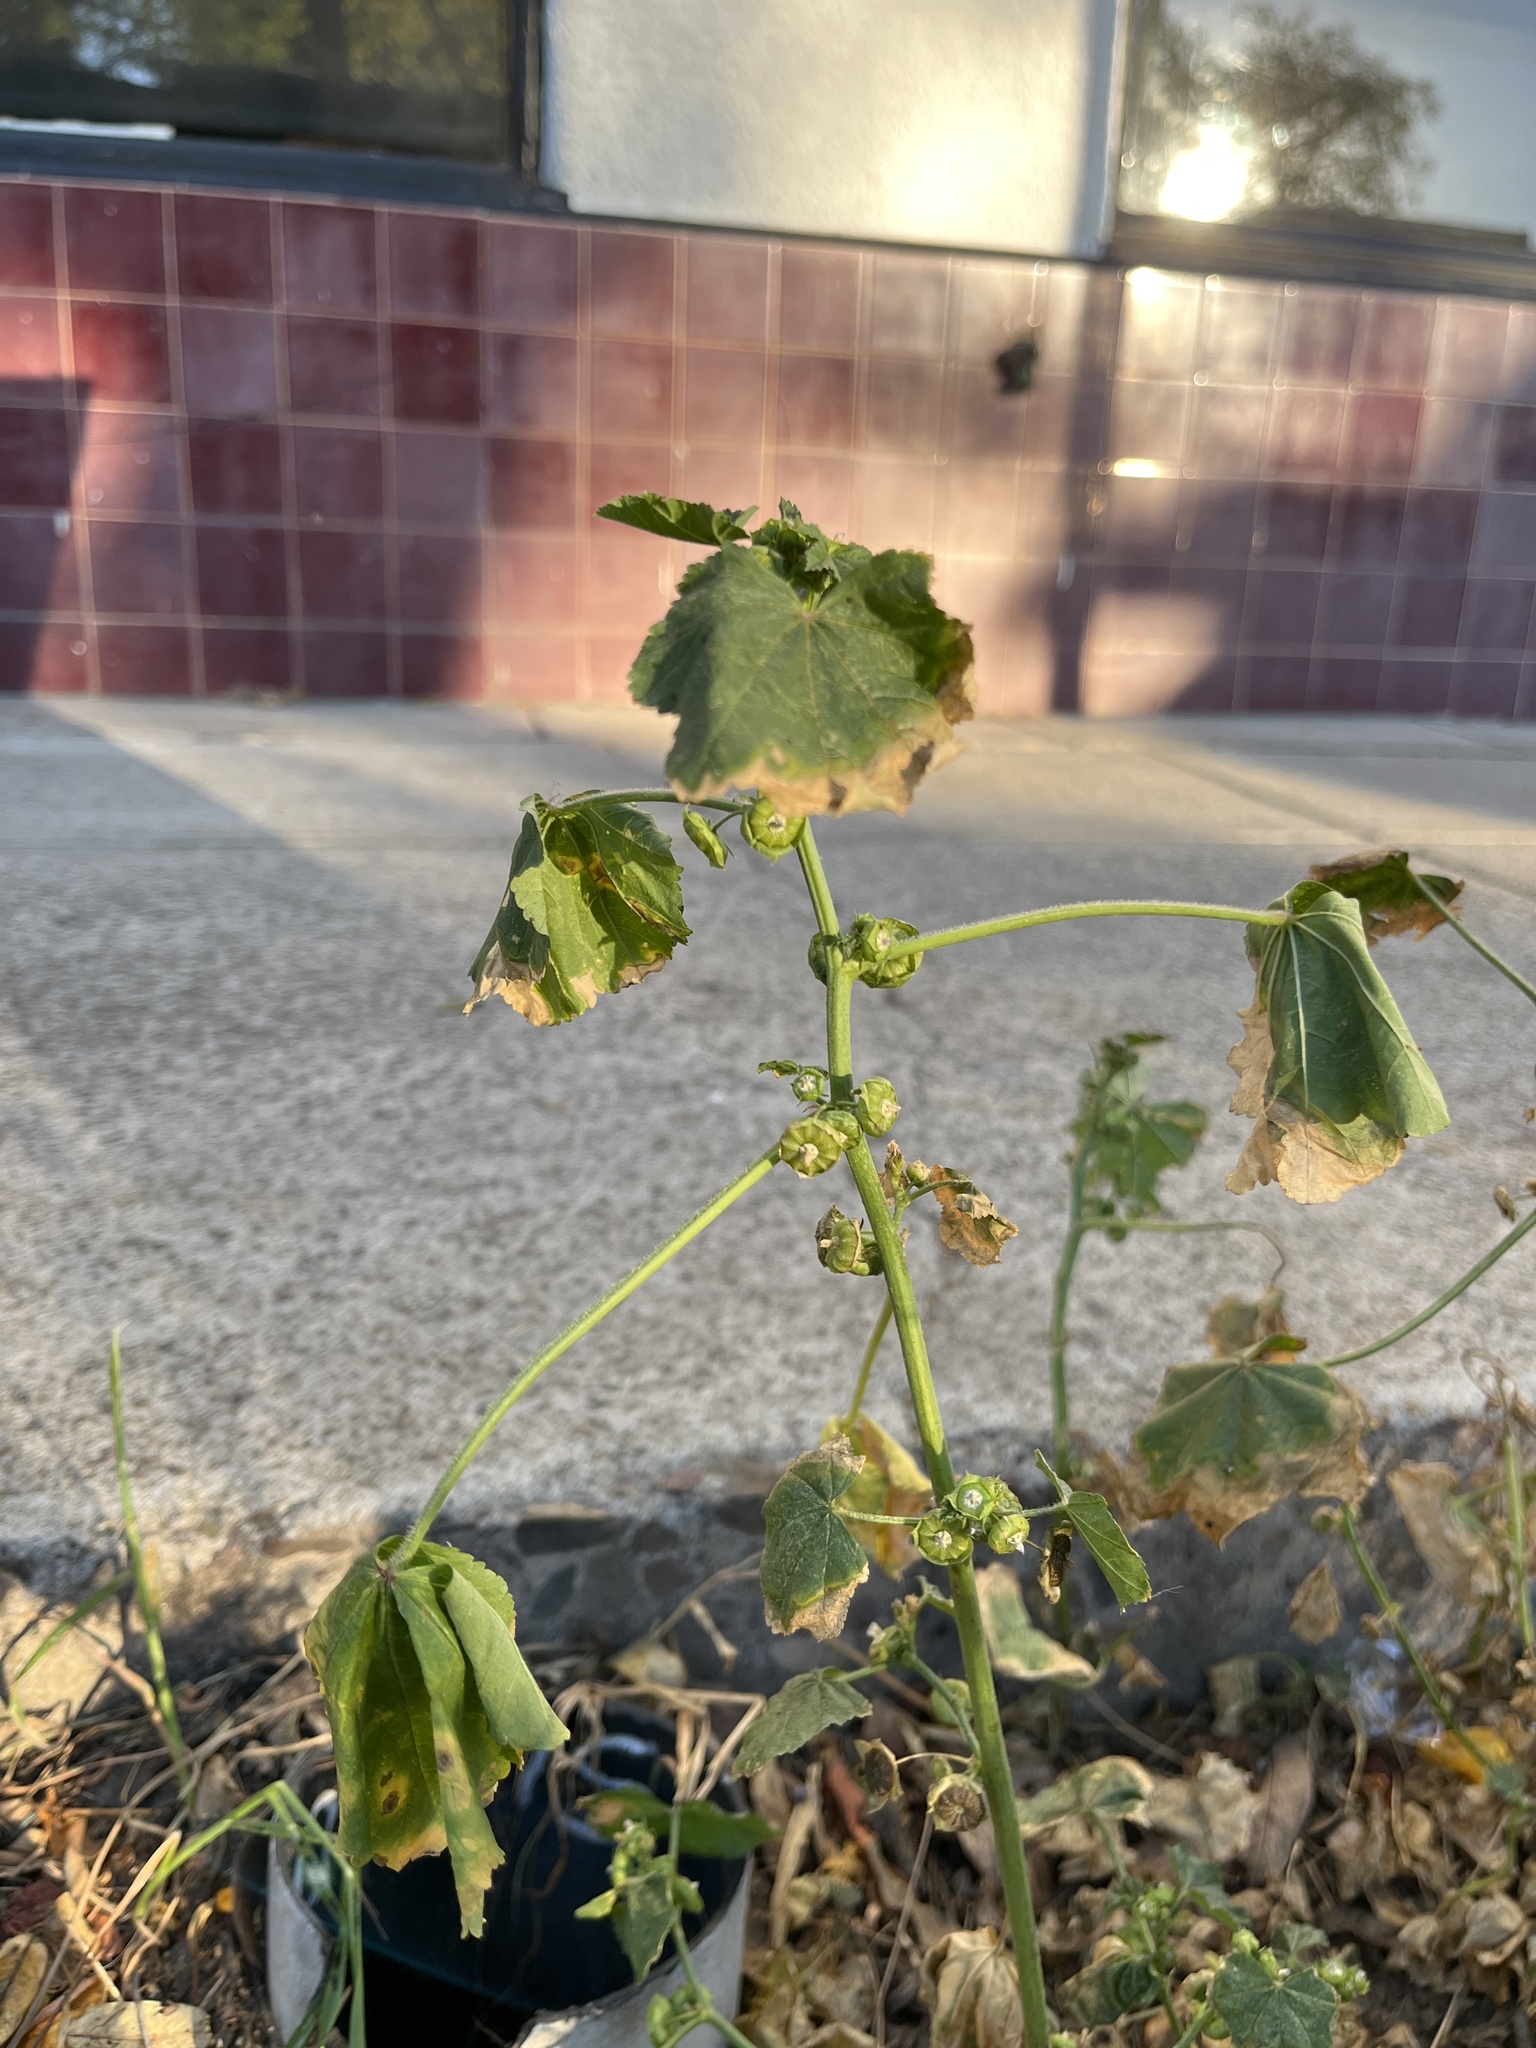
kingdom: Plantae
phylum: Tracheophyta
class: Magnoliopsida
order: Malvales
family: Malvaceae
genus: Malva
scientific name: Malva parviflora
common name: Least mallow
